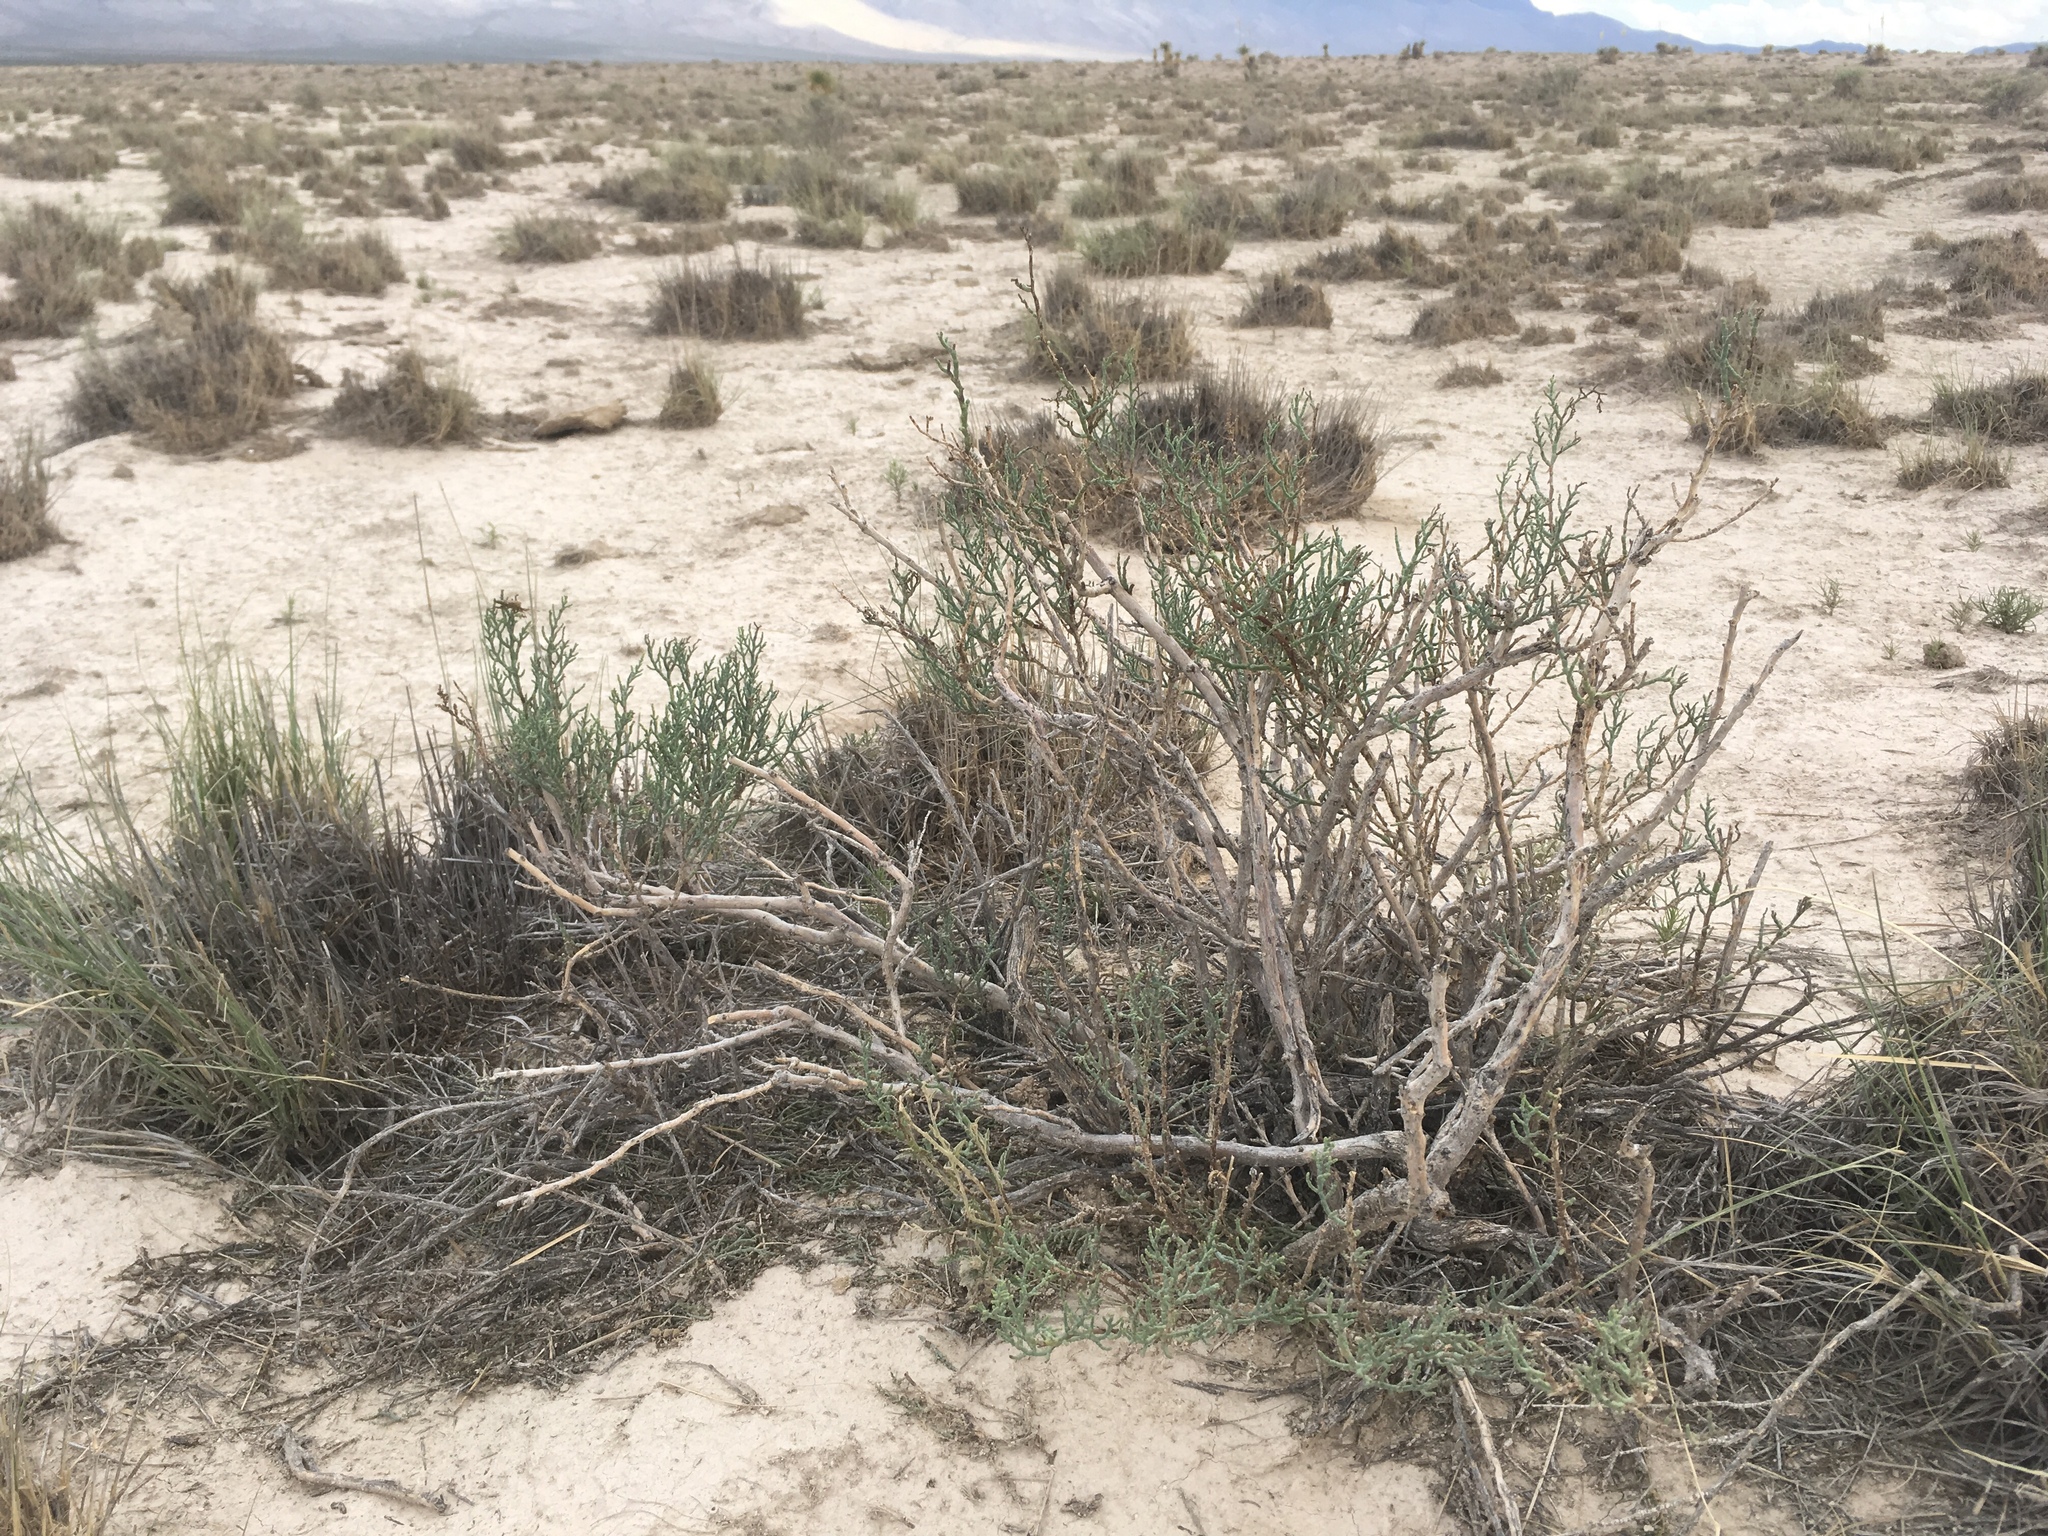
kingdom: Plantae
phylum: Tracheophyta
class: Magnoliopsida
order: Caryophyllales
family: Amaranthaceae
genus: Allenrolfea
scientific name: Allenrolfea occidentalis
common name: Iodine-bush
